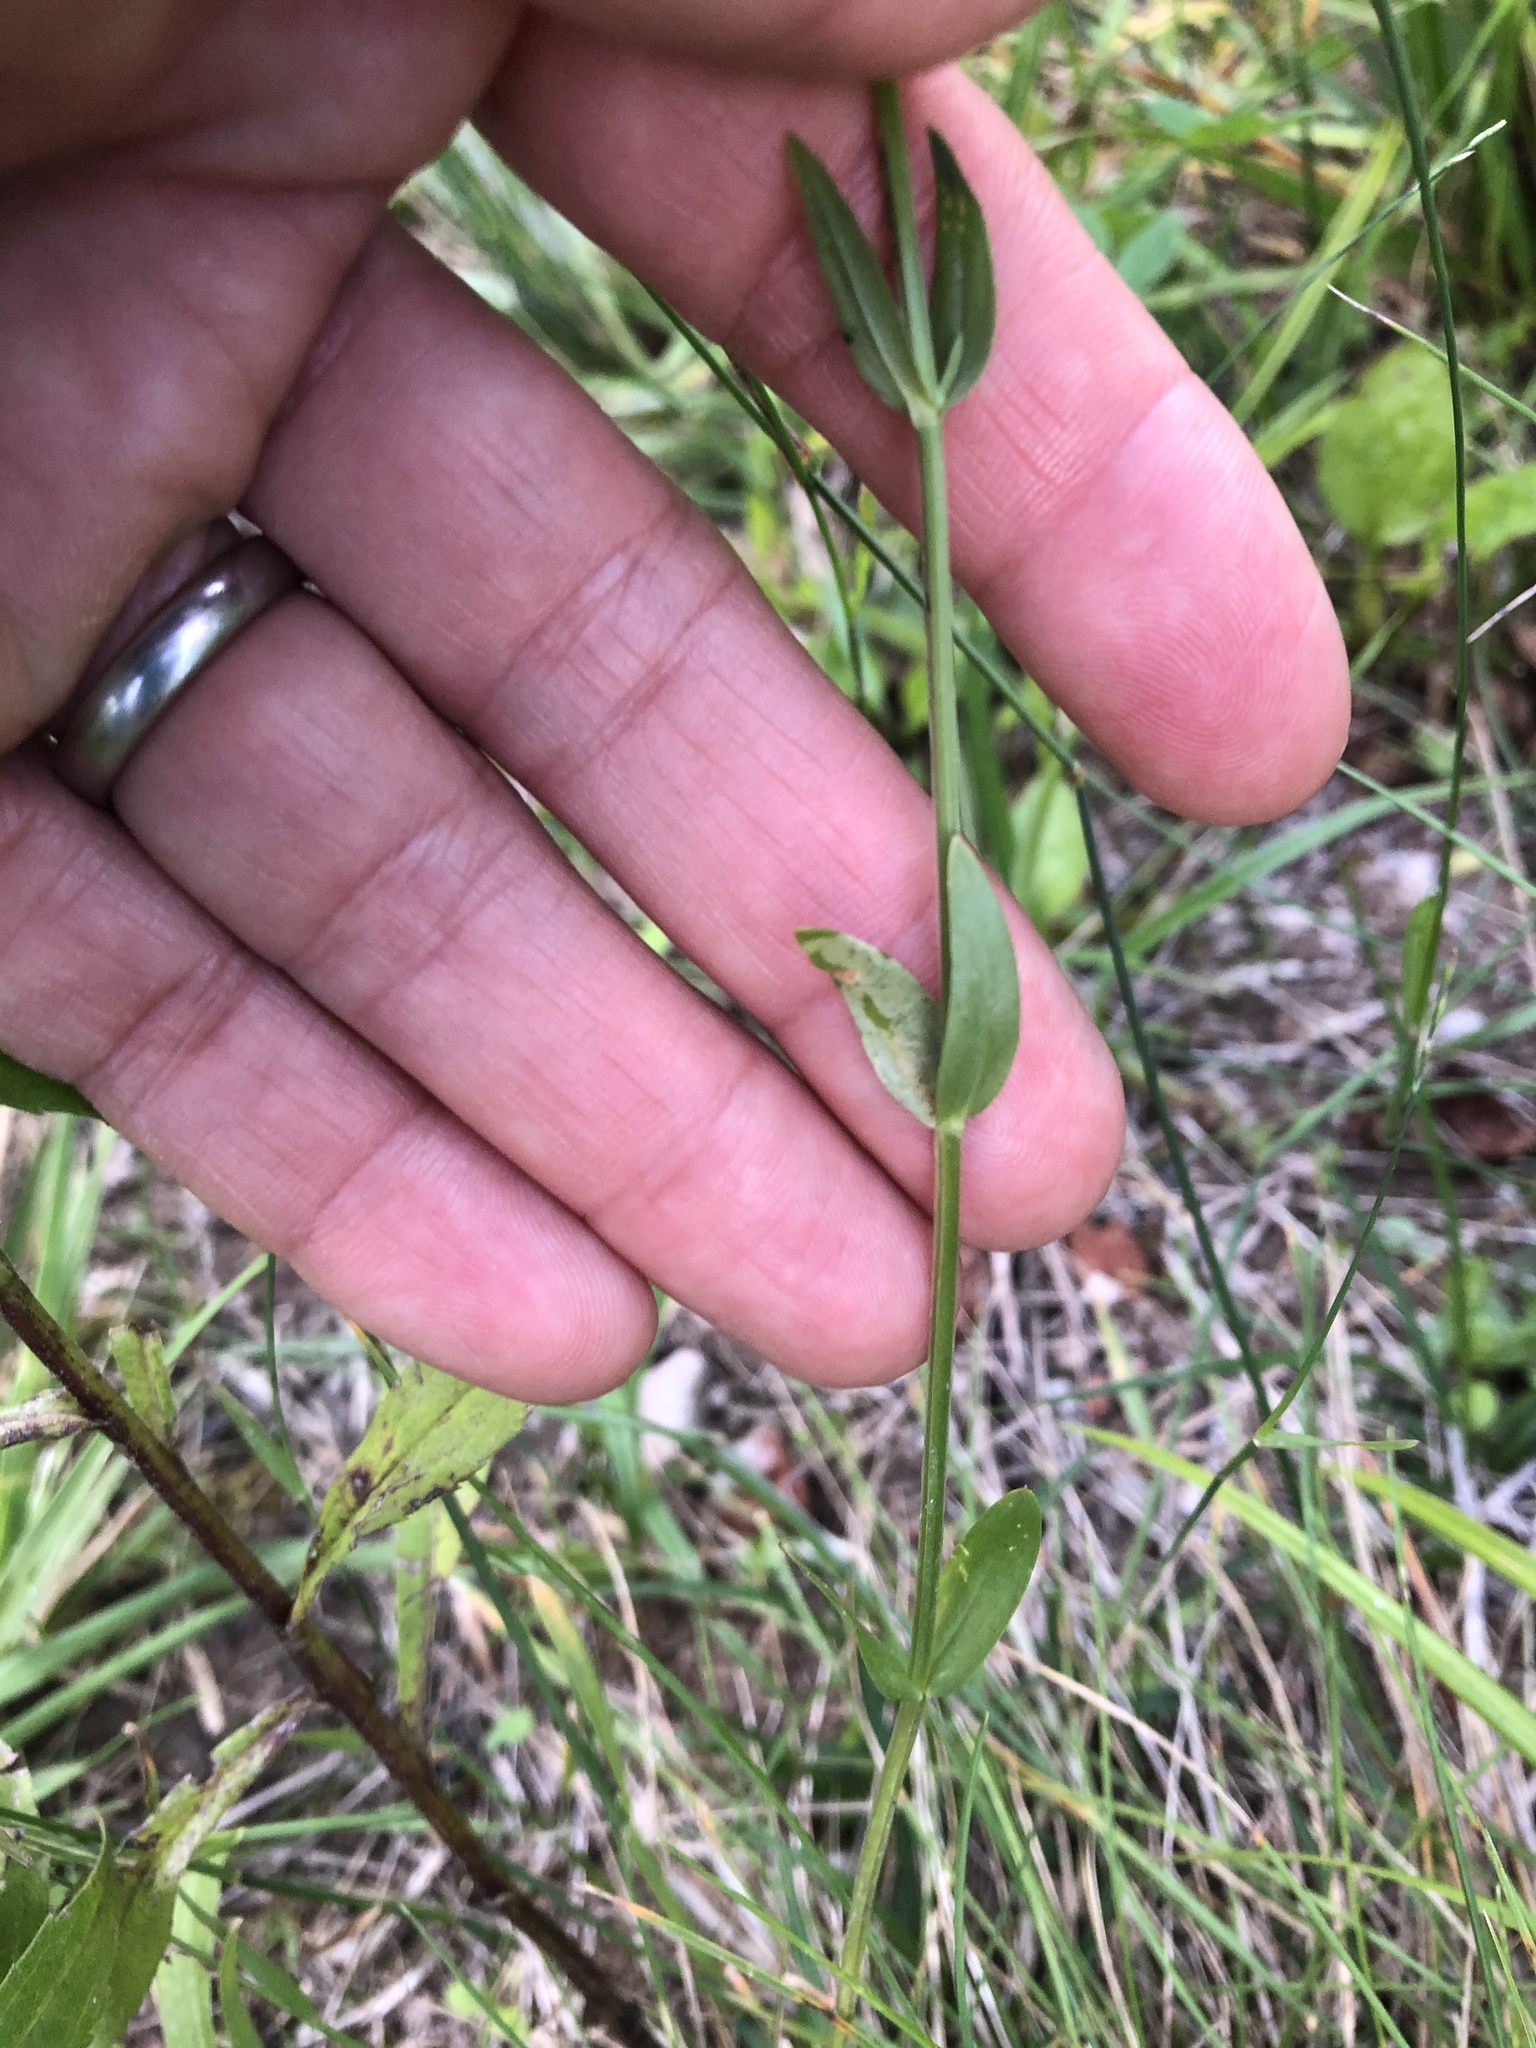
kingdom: Plantae
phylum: Tracheophyta
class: Magnoliopsida
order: Gentianales
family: Gentianaceae
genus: Centaurium
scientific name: Centaurium erythraea
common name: Common centaury
